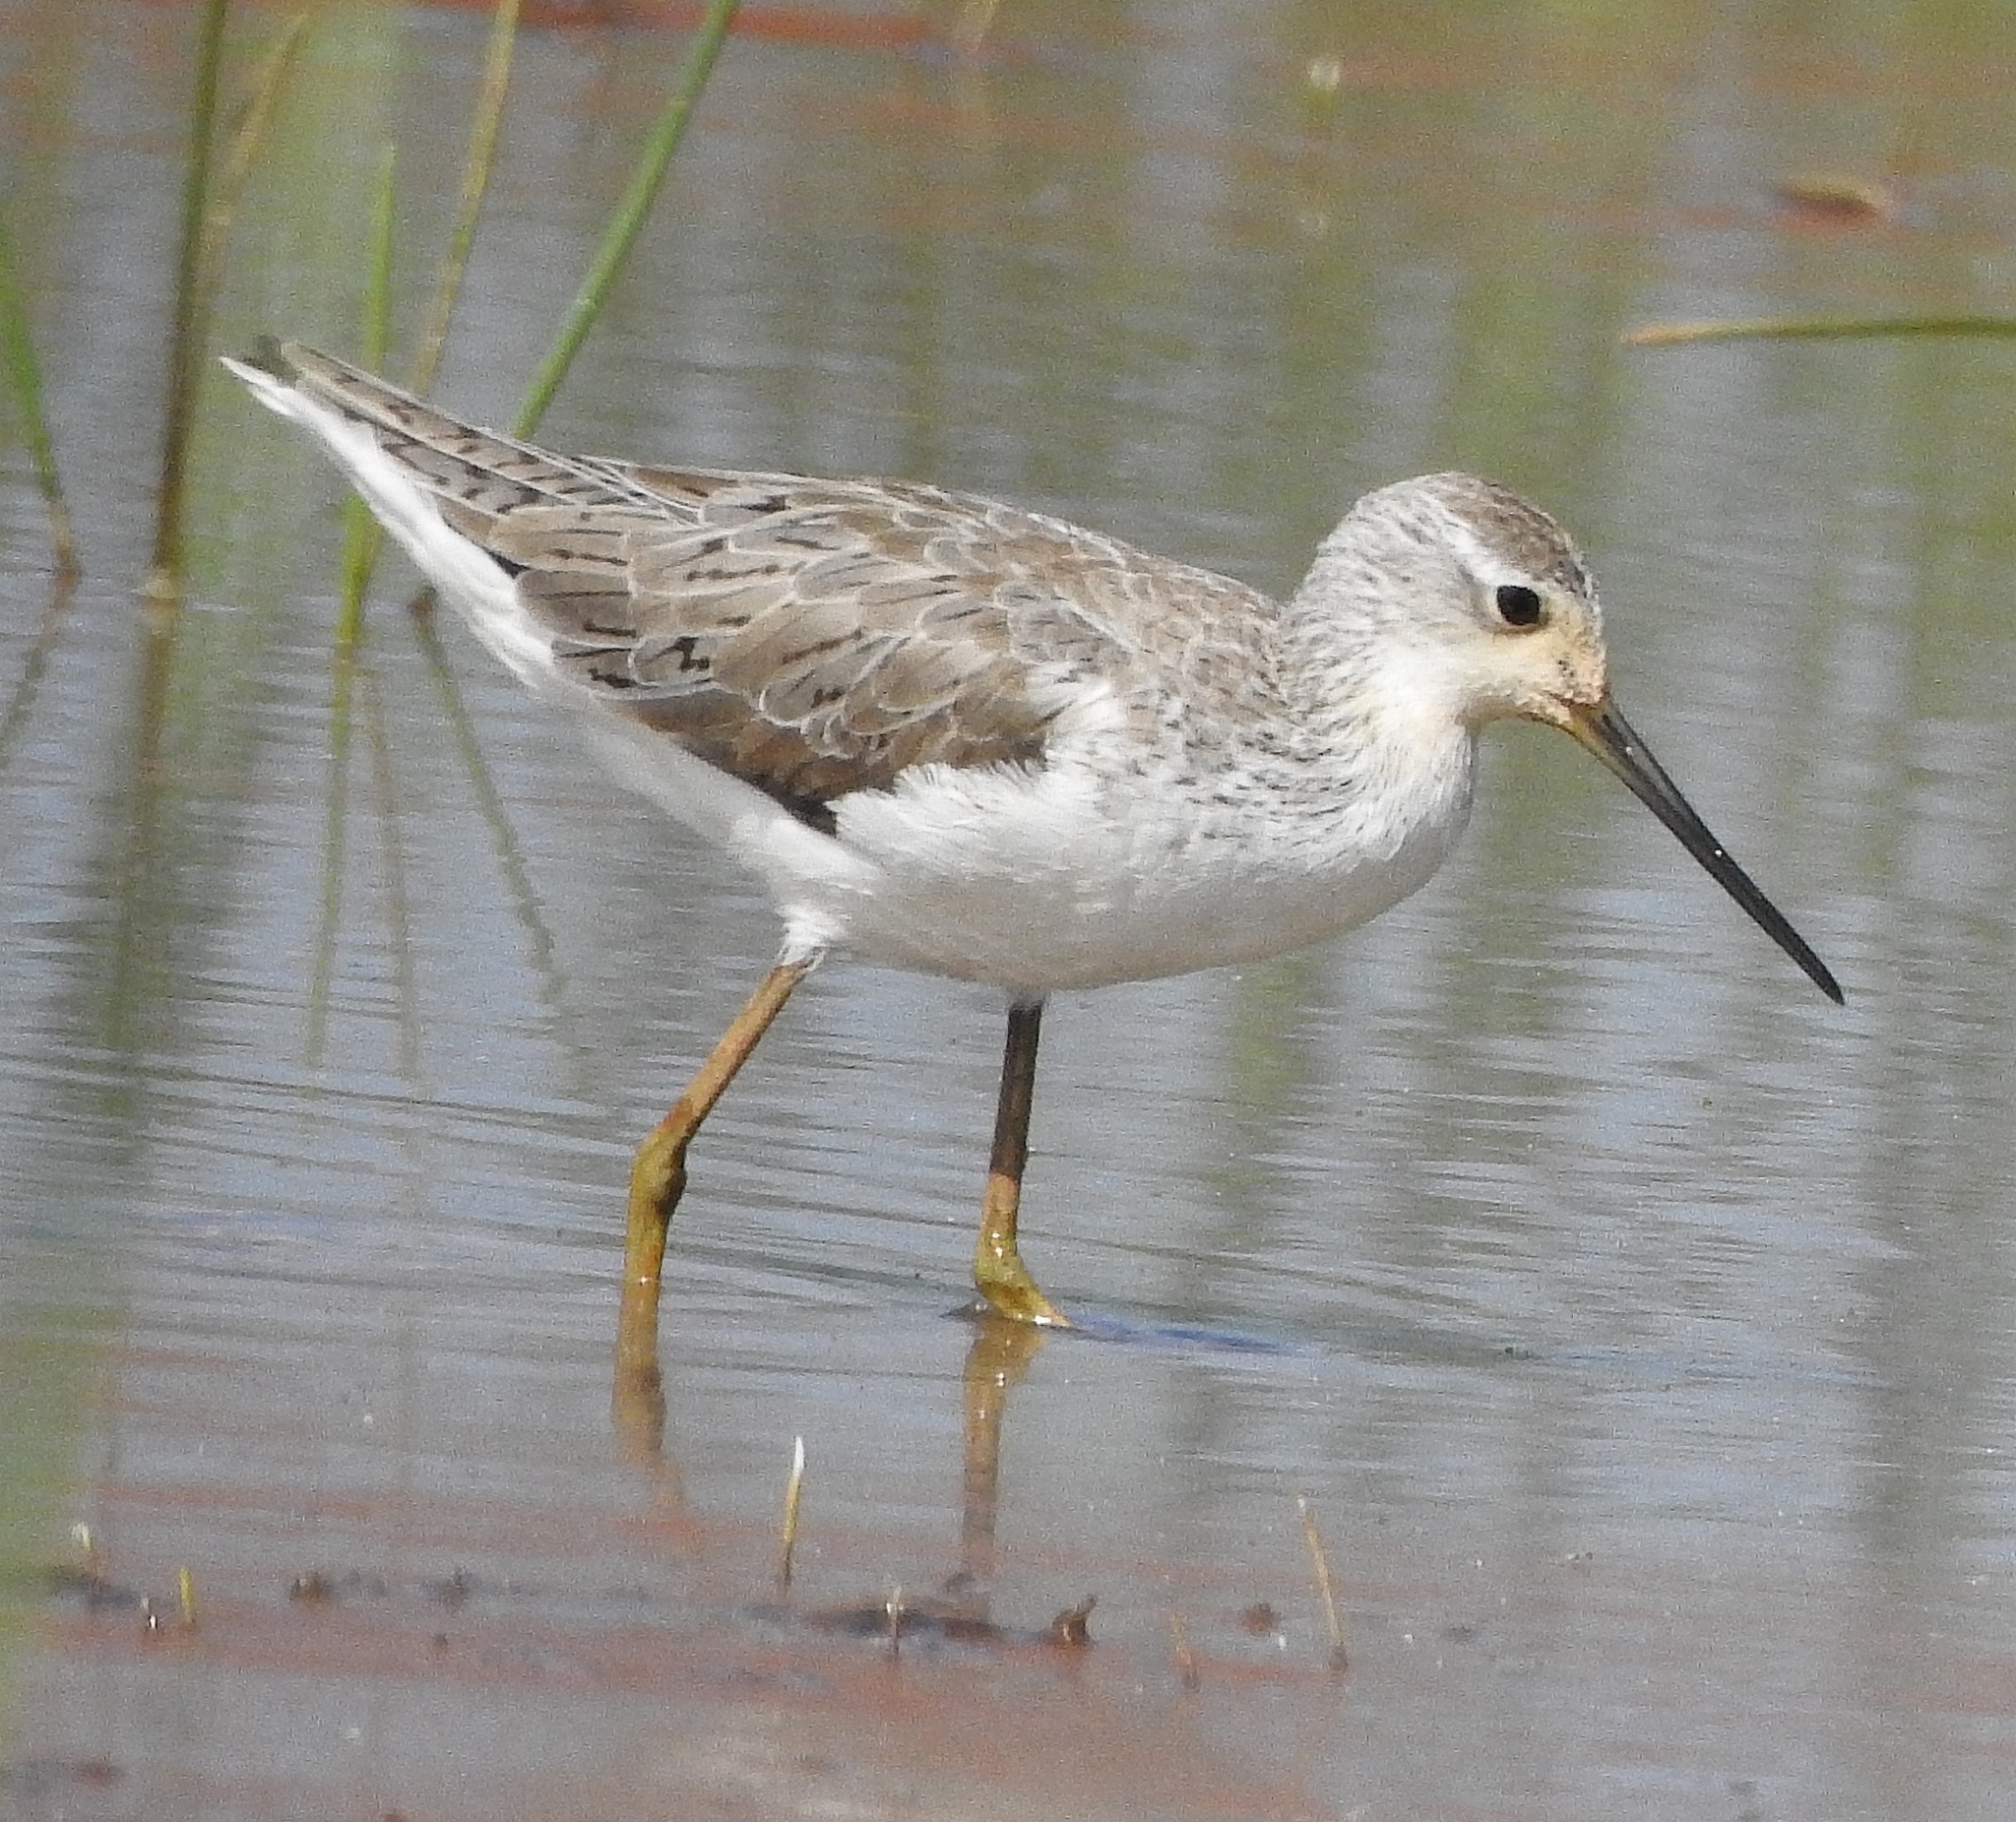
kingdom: Animalia
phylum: Chordata
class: Aves
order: Charadriiformes
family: Scolopacidae
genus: Tringa
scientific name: Tringa stagnatilis
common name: Marsh sandpiper
